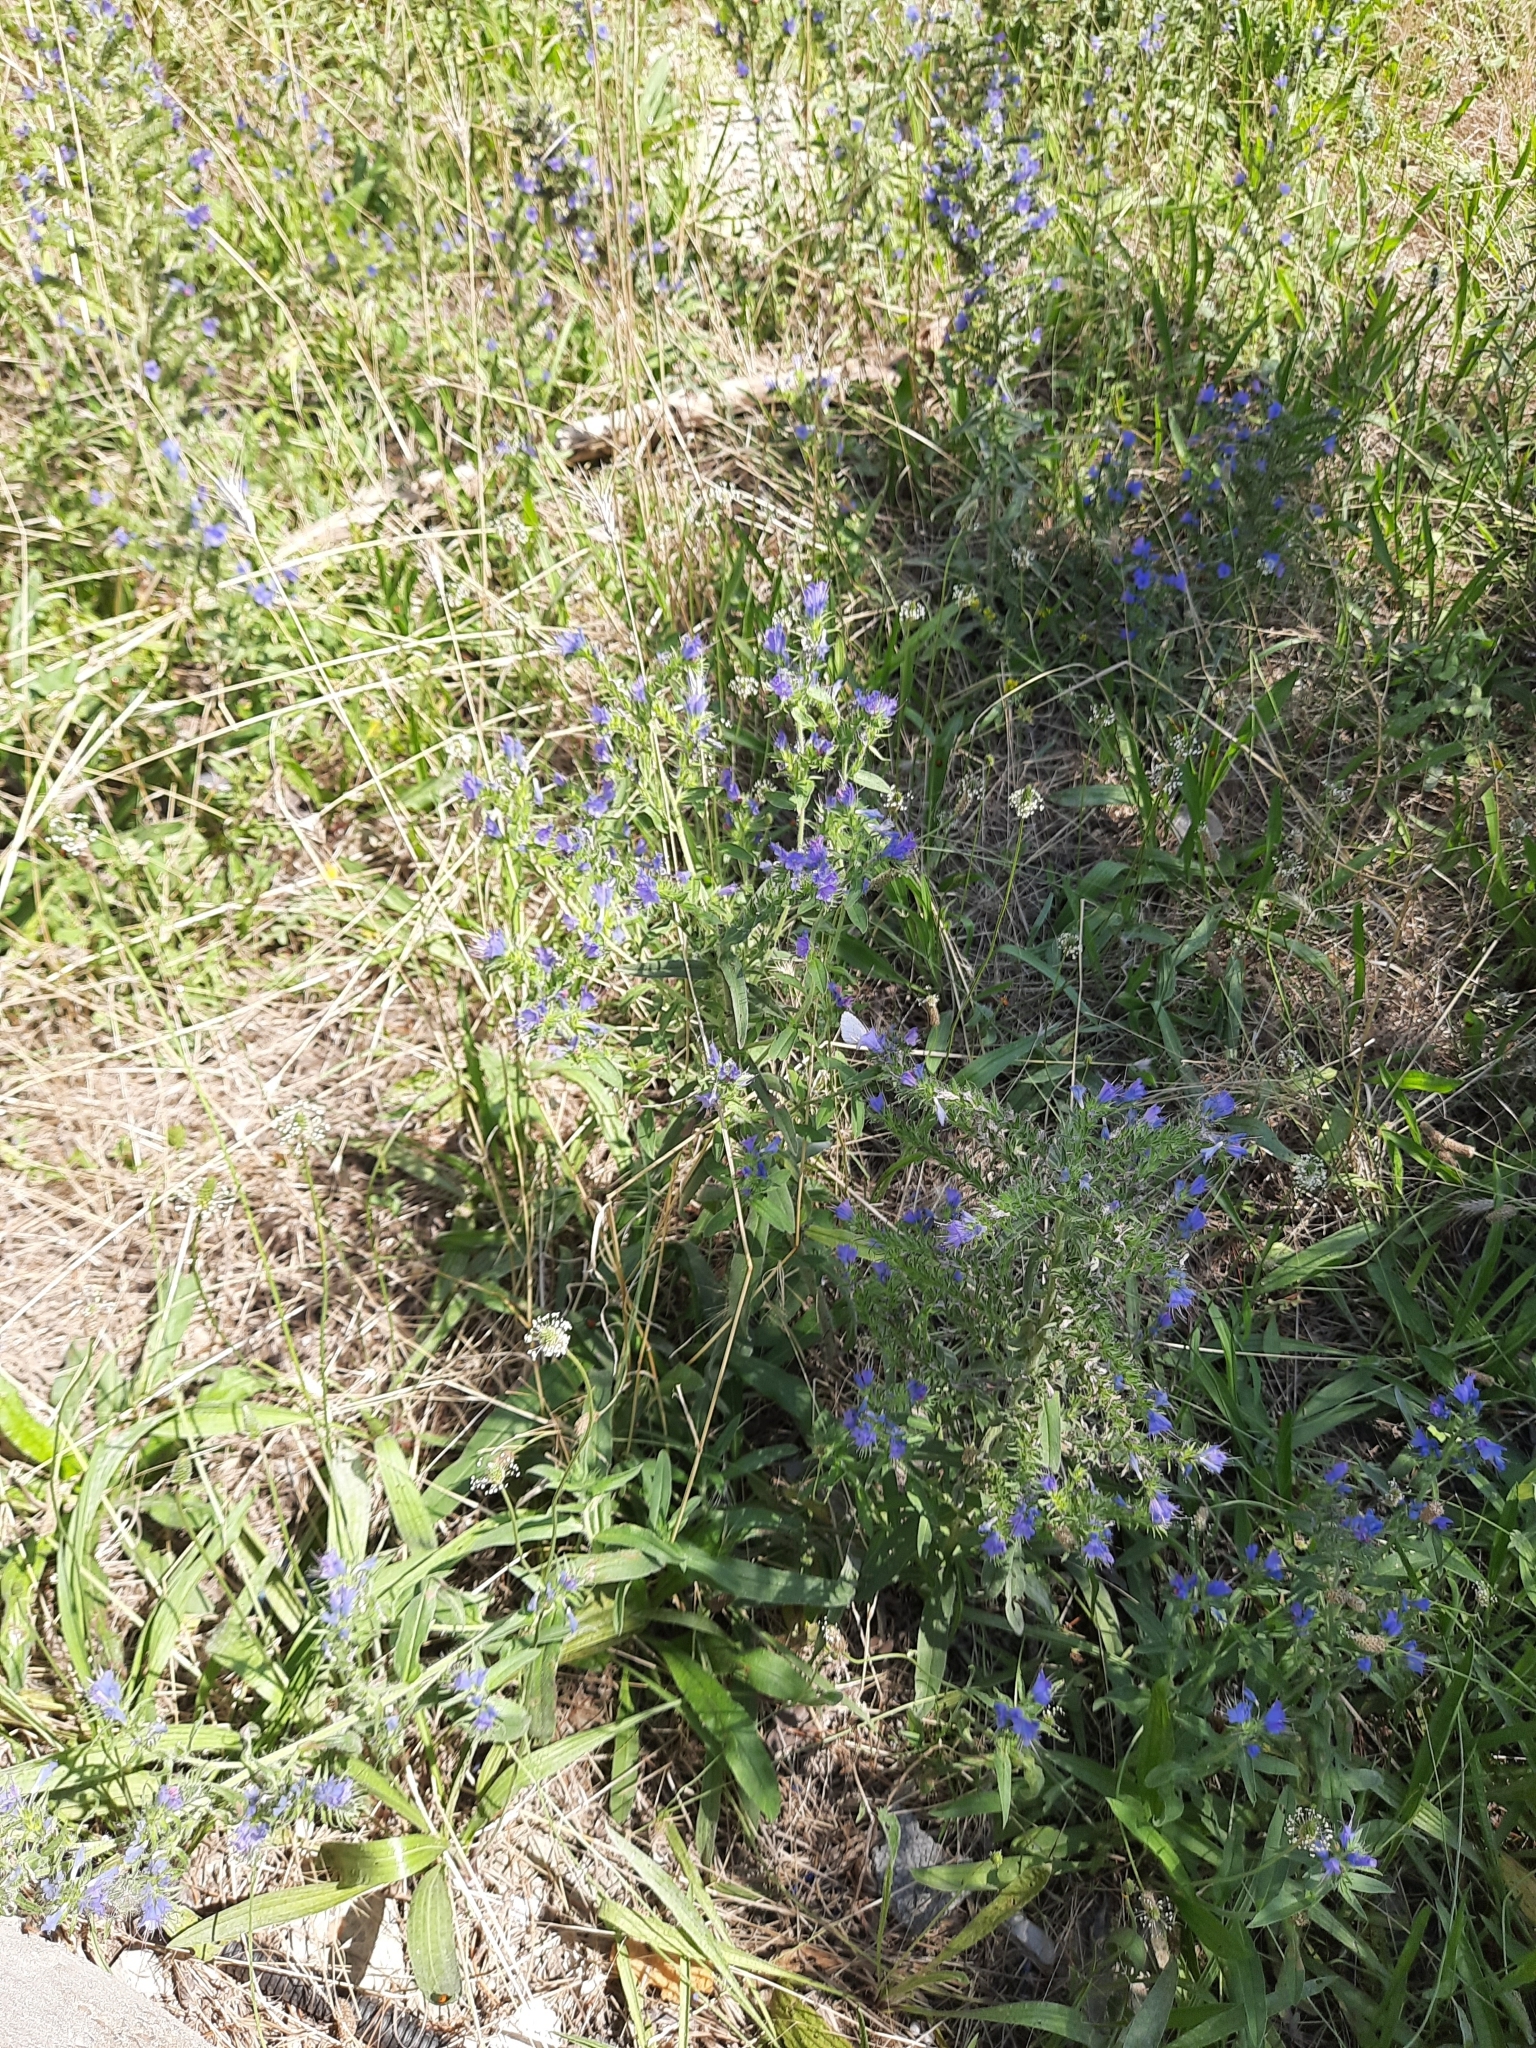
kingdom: Plantae
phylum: Tracheophyta
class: Magnoliopsida
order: Boraginales
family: Boraginaceae
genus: Echium
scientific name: Echium vulgare
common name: Common viper's bugloss
